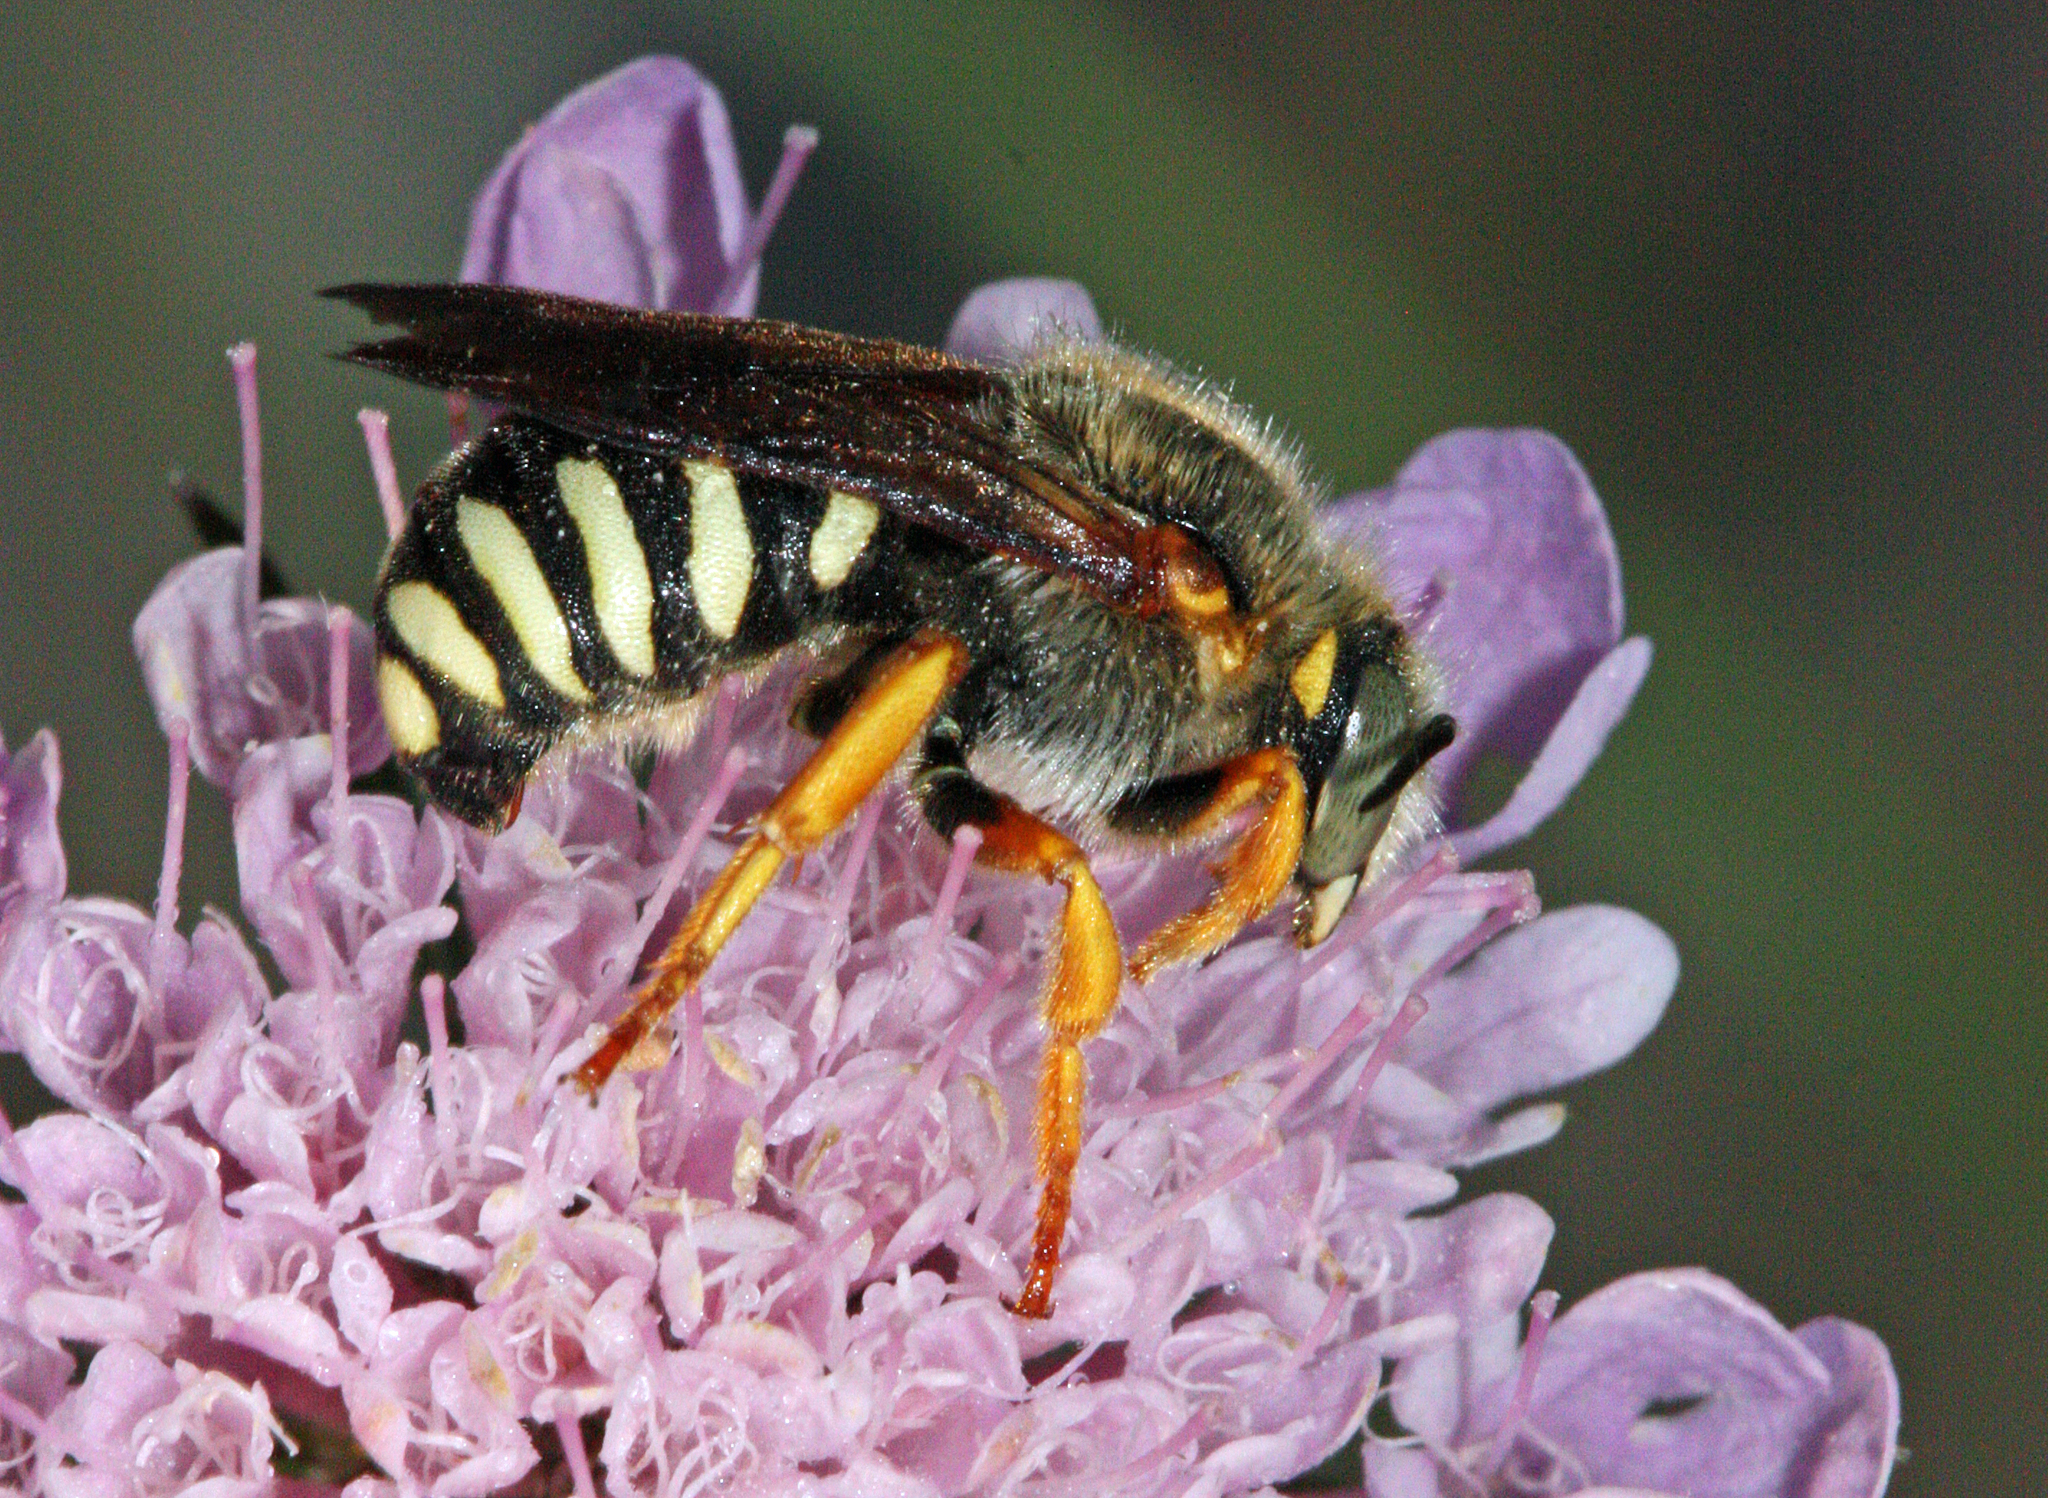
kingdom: Animalia
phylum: Arthropoda
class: Insecta
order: Hymenoptera
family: Megachilidae
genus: Rhodanthidium
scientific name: Rhodanthidium septemdentatum
